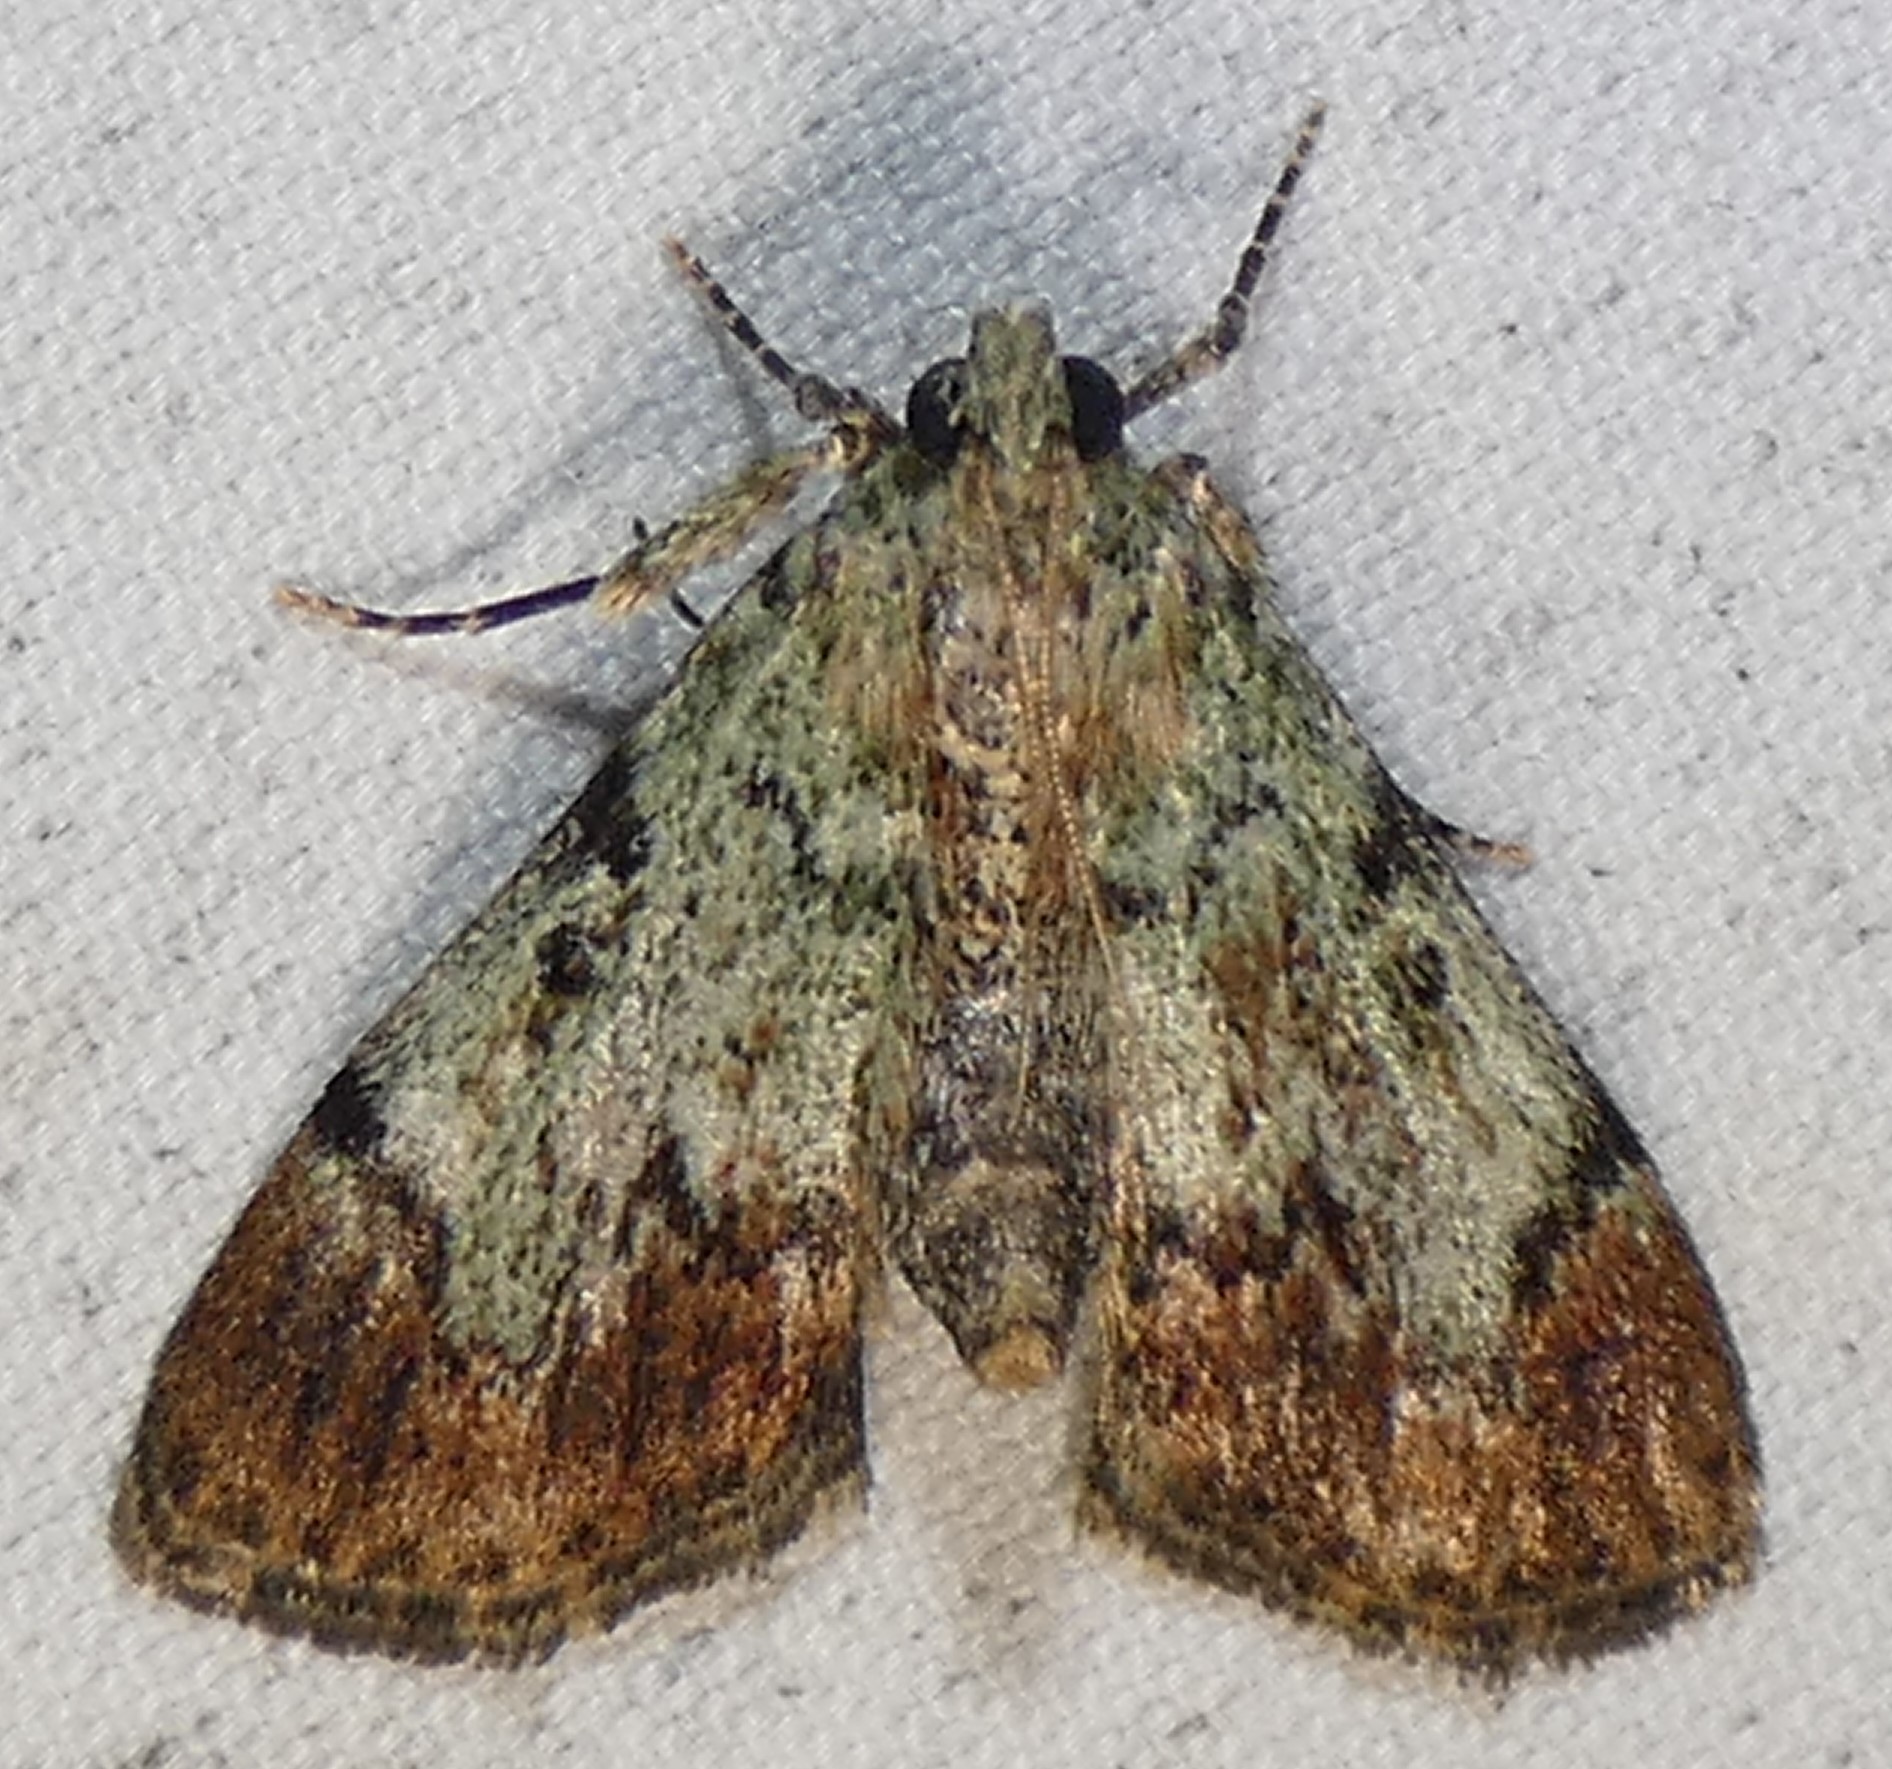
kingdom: Animalia
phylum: Arthropoda
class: Insecta
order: Lepidoptera
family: Pyralidae
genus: Epipaschia
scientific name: Epipaschia superatalis
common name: Dimorphic macalla moth
